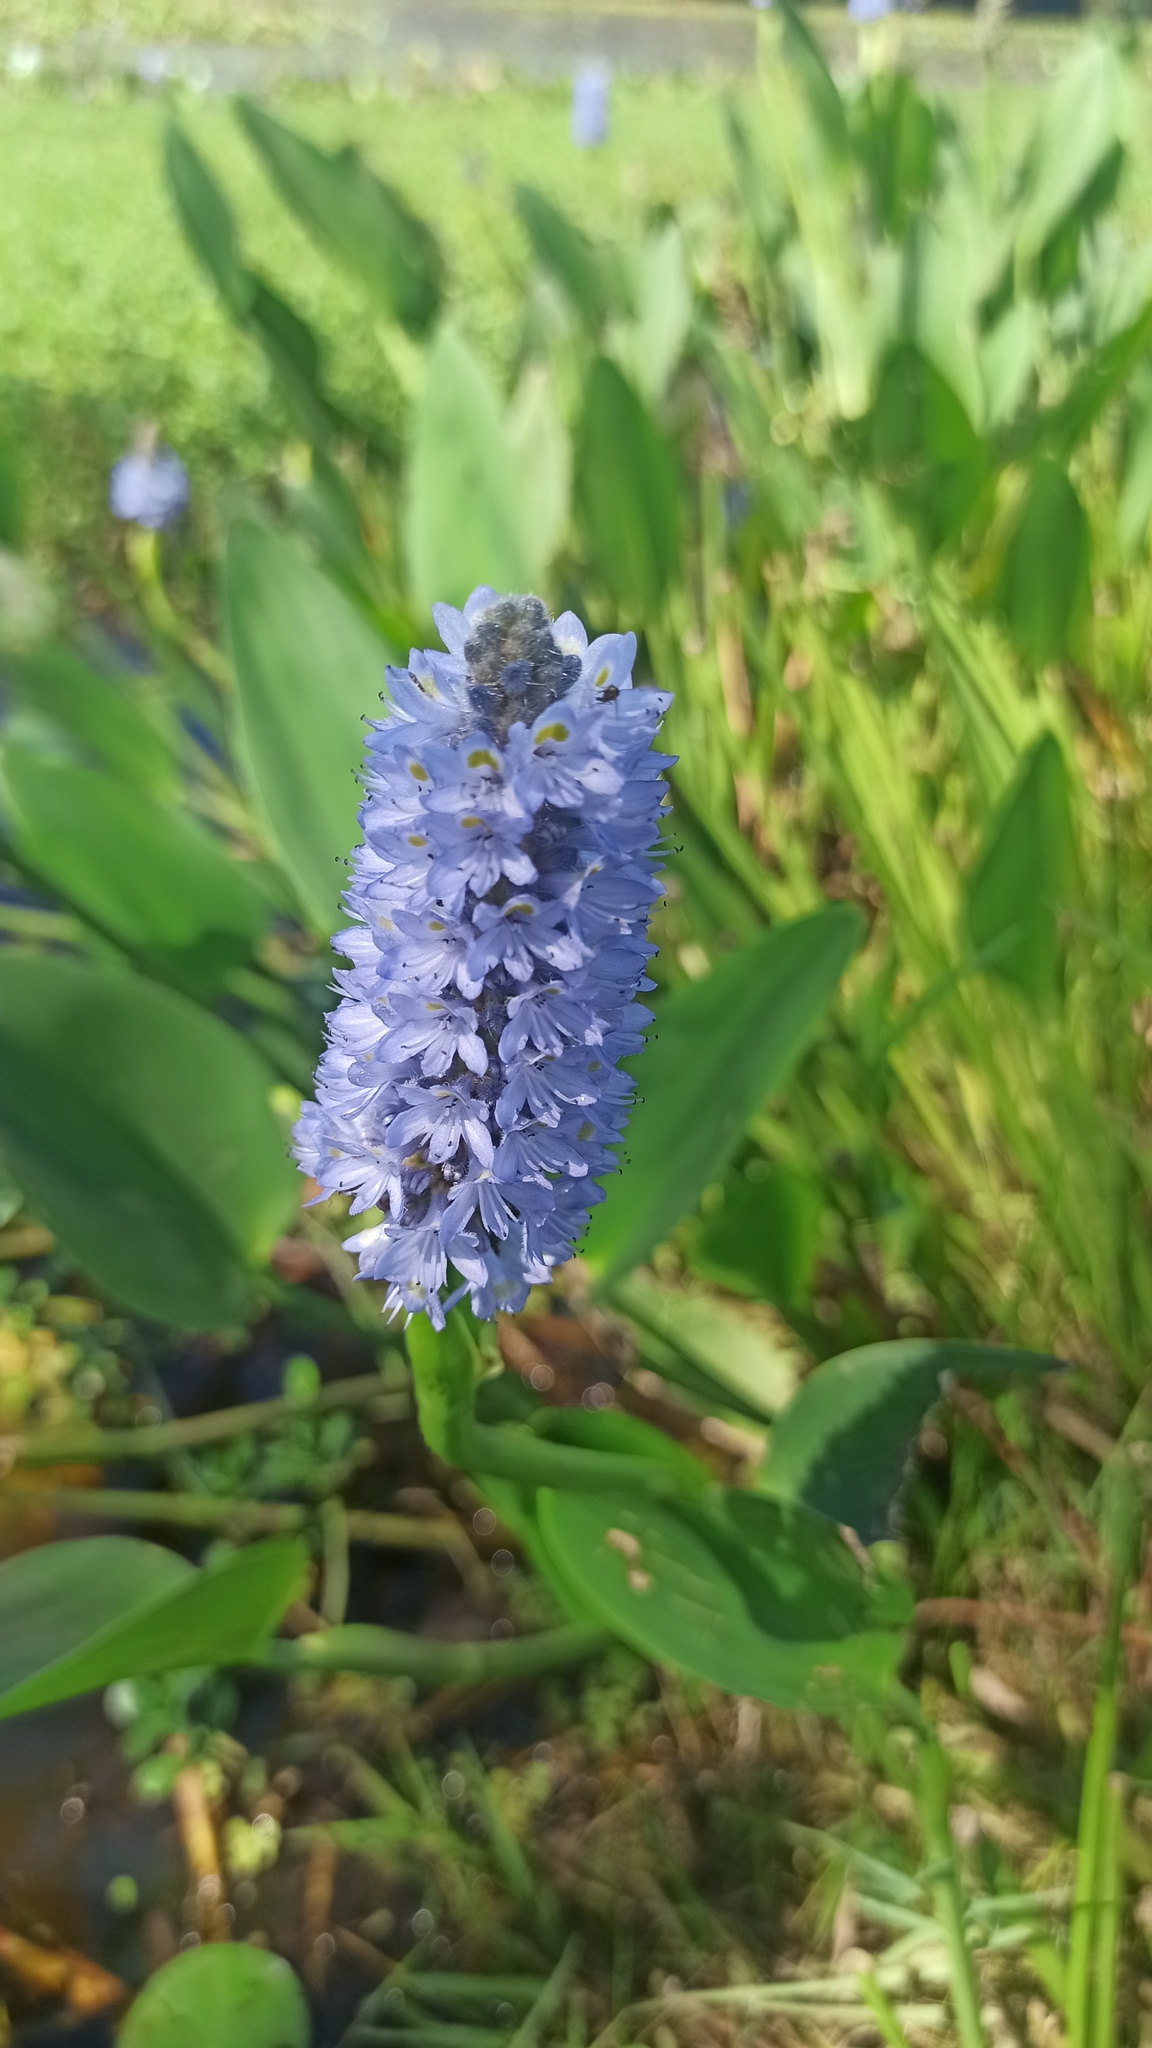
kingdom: Plantae
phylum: Tracheophyta
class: Liliopsida
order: Commelinales
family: Pontederiaceae
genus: Pontederia
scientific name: Pontederia cordata
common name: Pickerelweed
